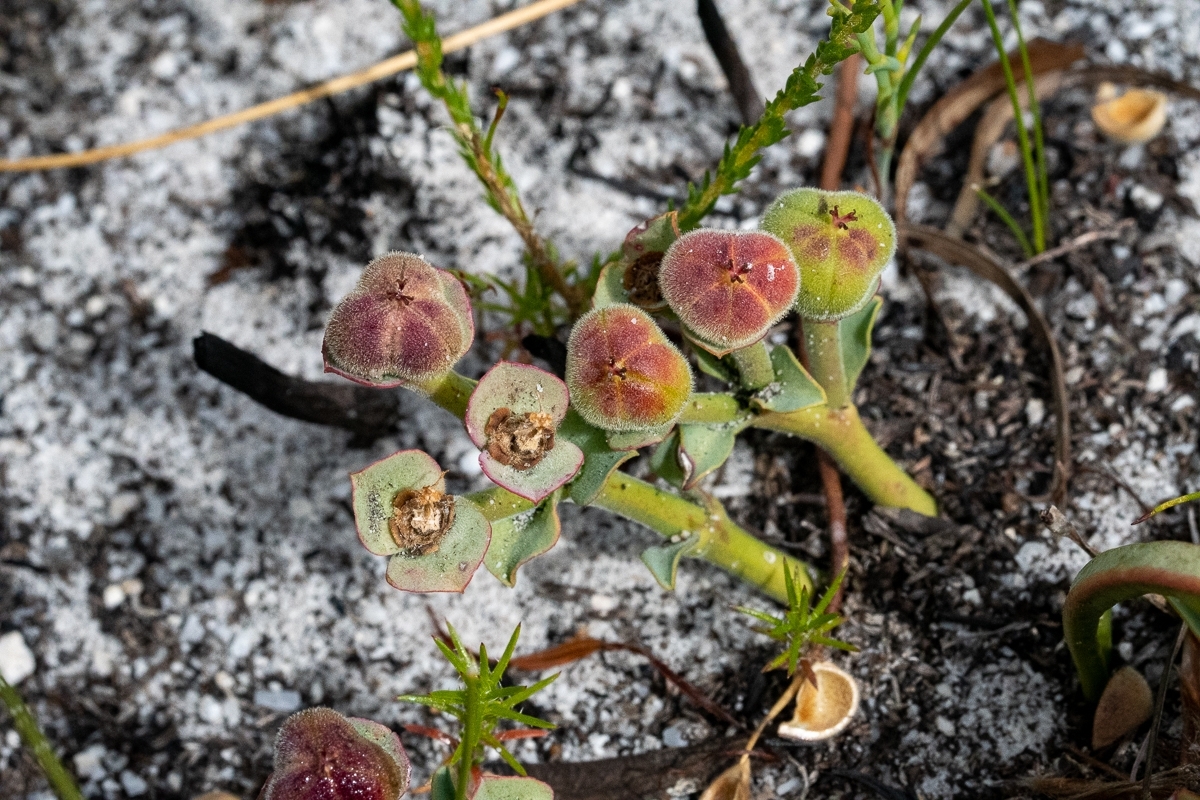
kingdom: Plantae
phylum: Tracheophyta
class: Magnoliopsida
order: Malpighiales
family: Euphorbiaceae
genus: Euphorbia
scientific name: Euphorbia tuberosa
